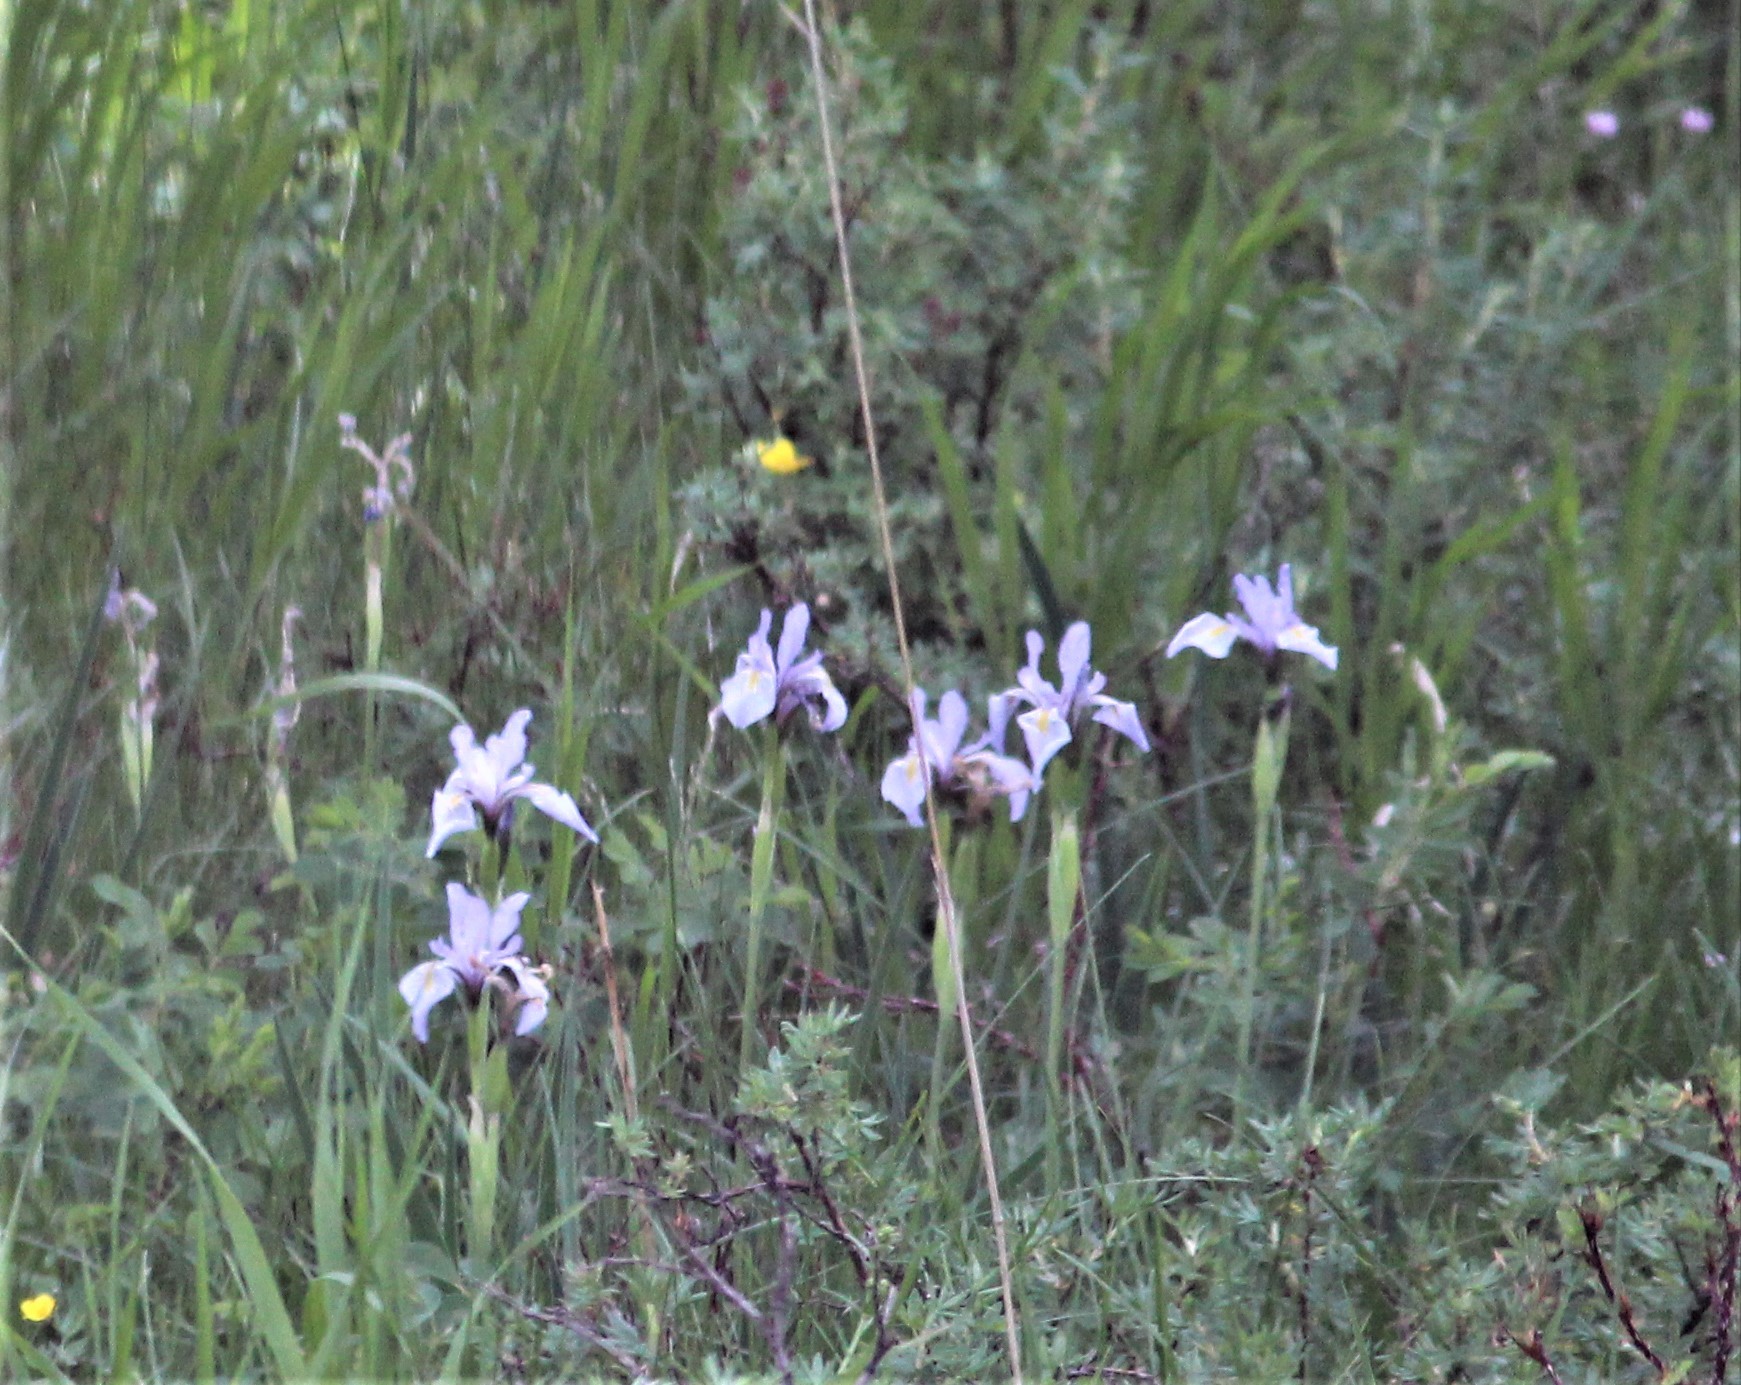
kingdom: Plantae
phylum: Tracheophyta
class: Liliopsida
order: Asparagales
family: Iridaceae
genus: Iris
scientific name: Iris missouriensis
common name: Rocky mountain iris
